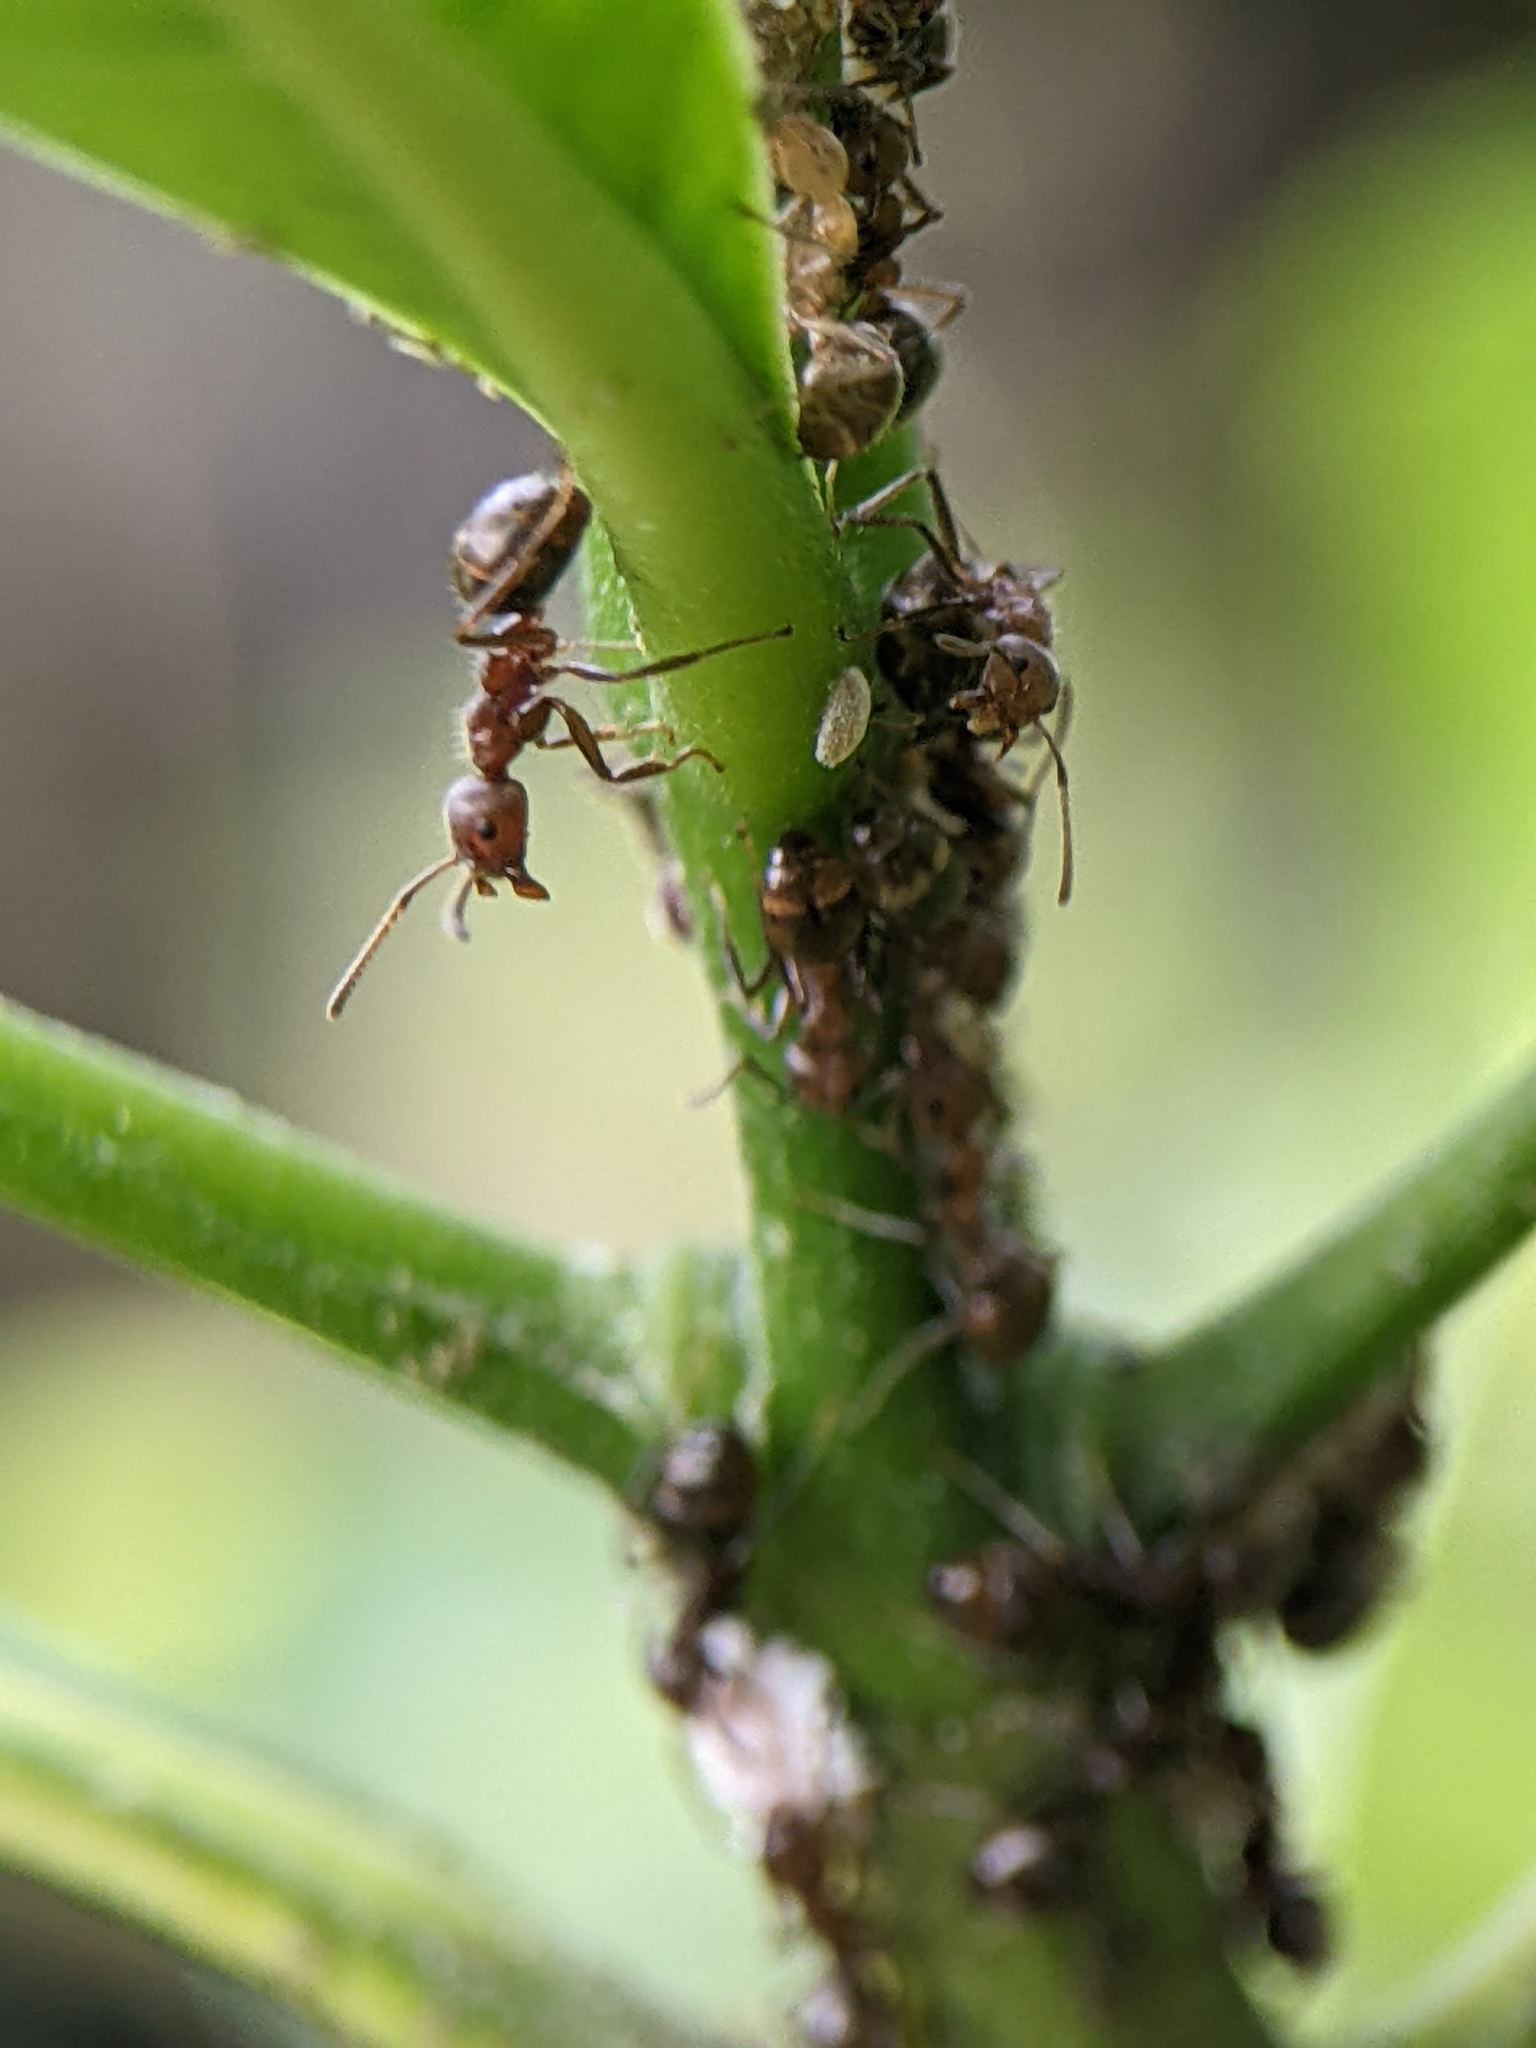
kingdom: Animalia
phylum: Arthropoda
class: Insecta
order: Hymenoptera
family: Formicidae
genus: Dolichoderus
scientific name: Dolichoderus thoracicus
